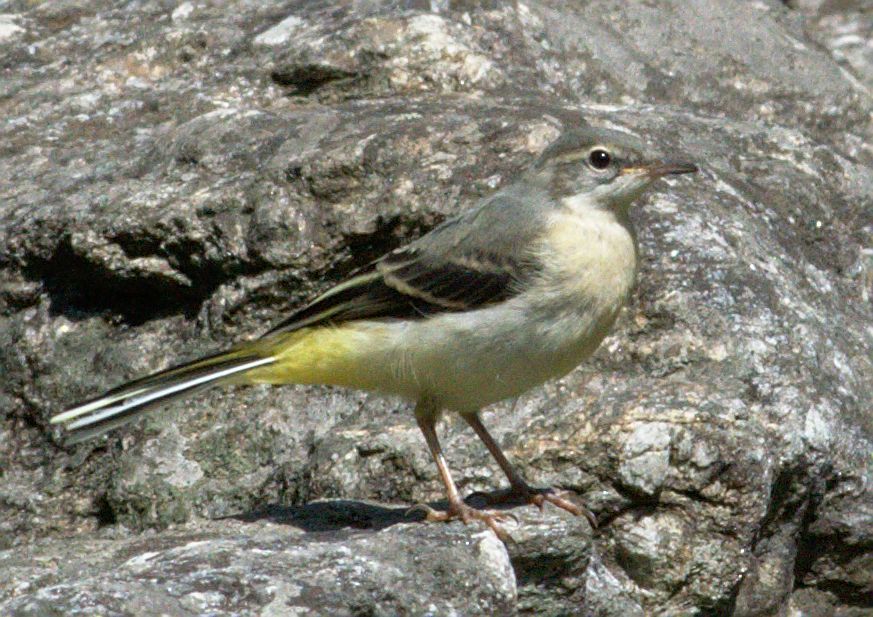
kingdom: Animalia
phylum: Chordata
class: Aves
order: Passeriformes
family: Motacillidae
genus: Motacilla
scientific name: Motacilla cinerea
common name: Grey wagtail
